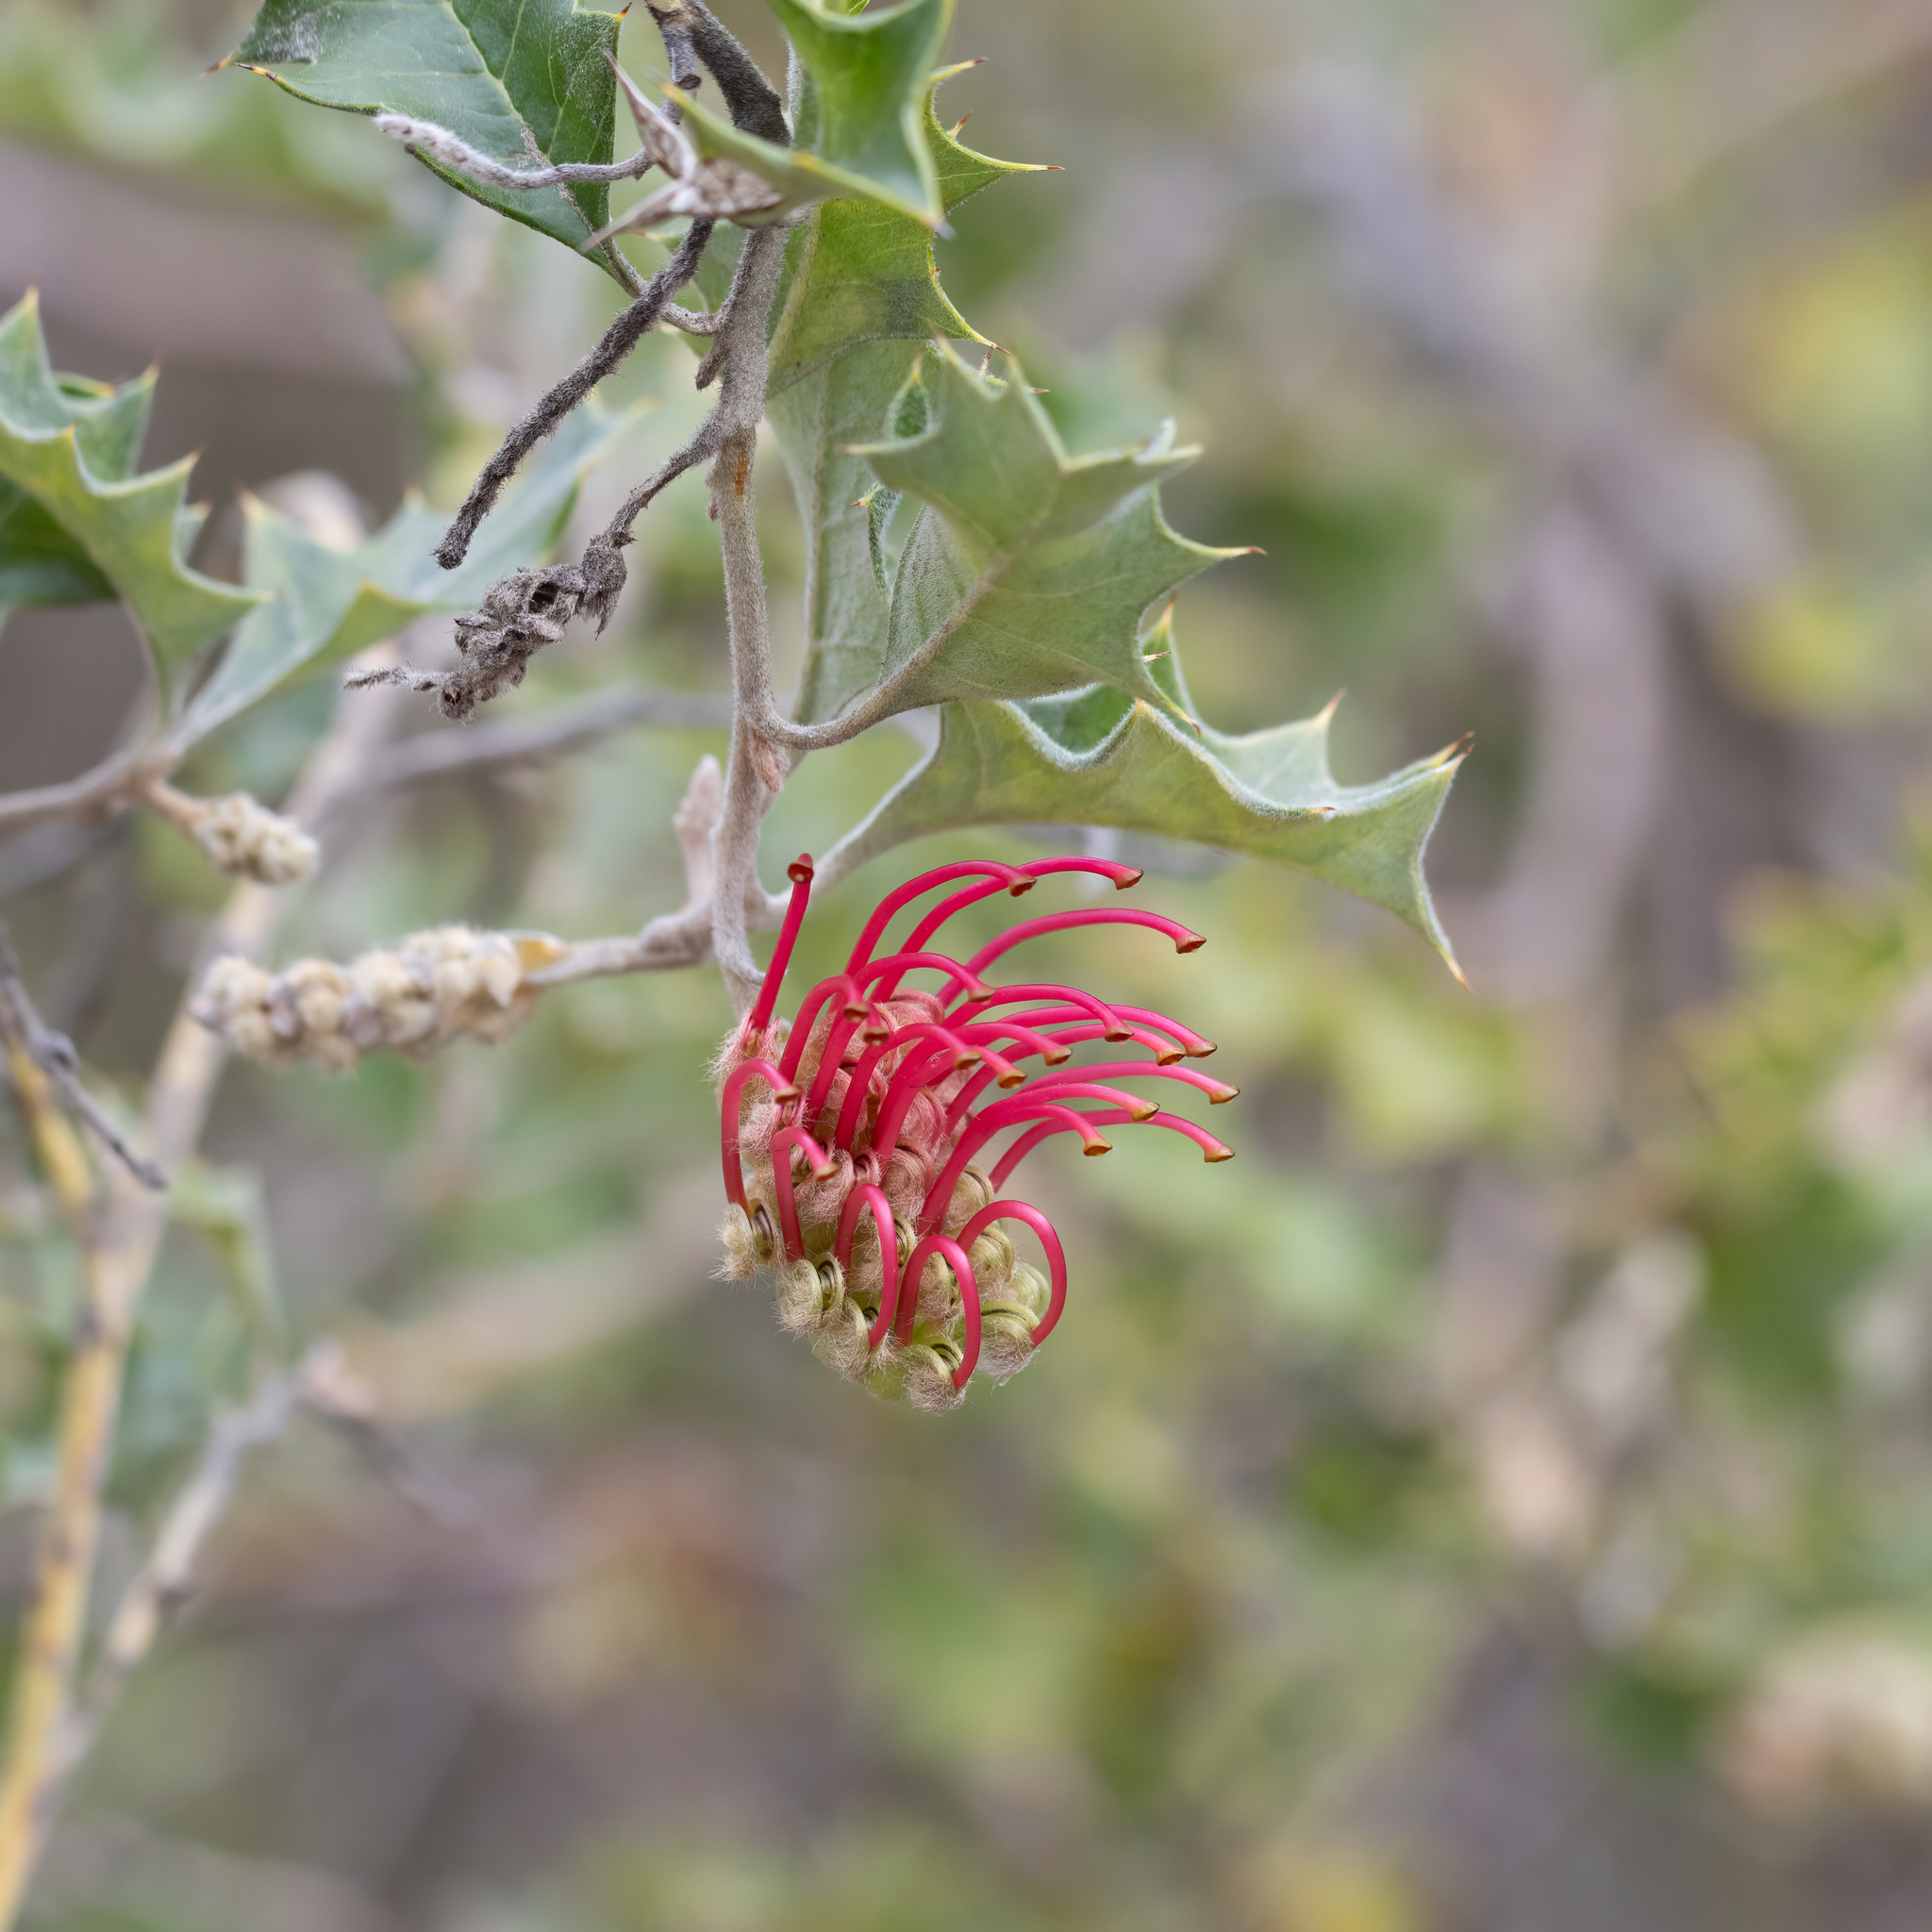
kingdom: Plantae
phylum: Tracheophyta
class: Magnoliopsida
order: Proteales
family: Proteaceae
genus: Grevillea
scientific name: Grevillea aquifolium
